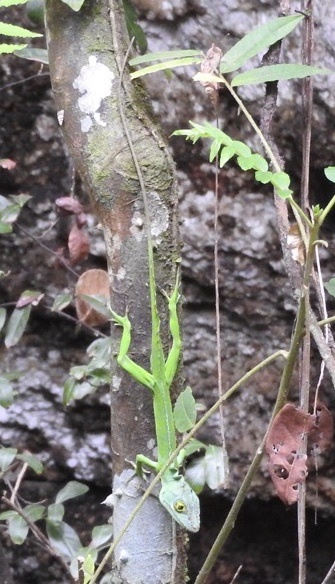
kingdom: Animalia
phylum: Chordata
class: Squamata
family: Dactyloidae
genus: Anolis
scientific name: Anolis cuvieri
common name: Cuvier's anole
